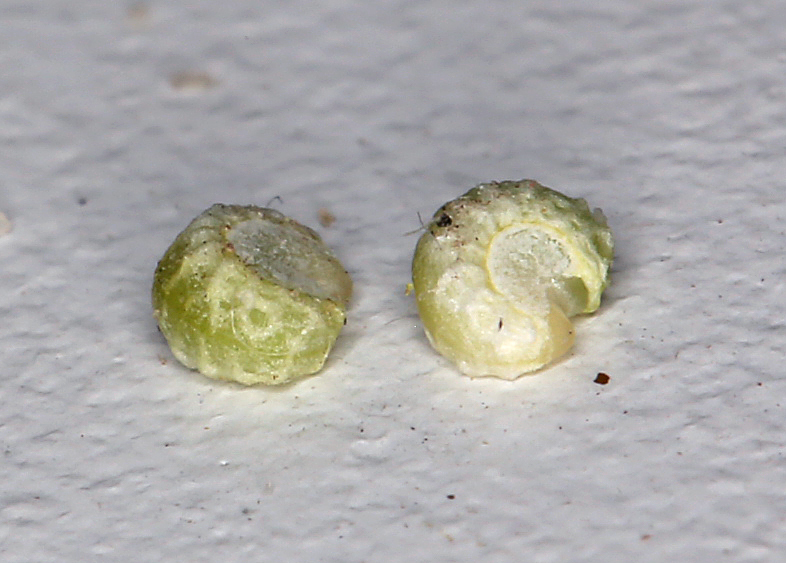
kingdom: Plantae
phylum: Tracheophyta
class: Magnoliopsida
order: Malvales
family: Malvaceae
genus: Eremalche
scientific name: Eremalche exilis
